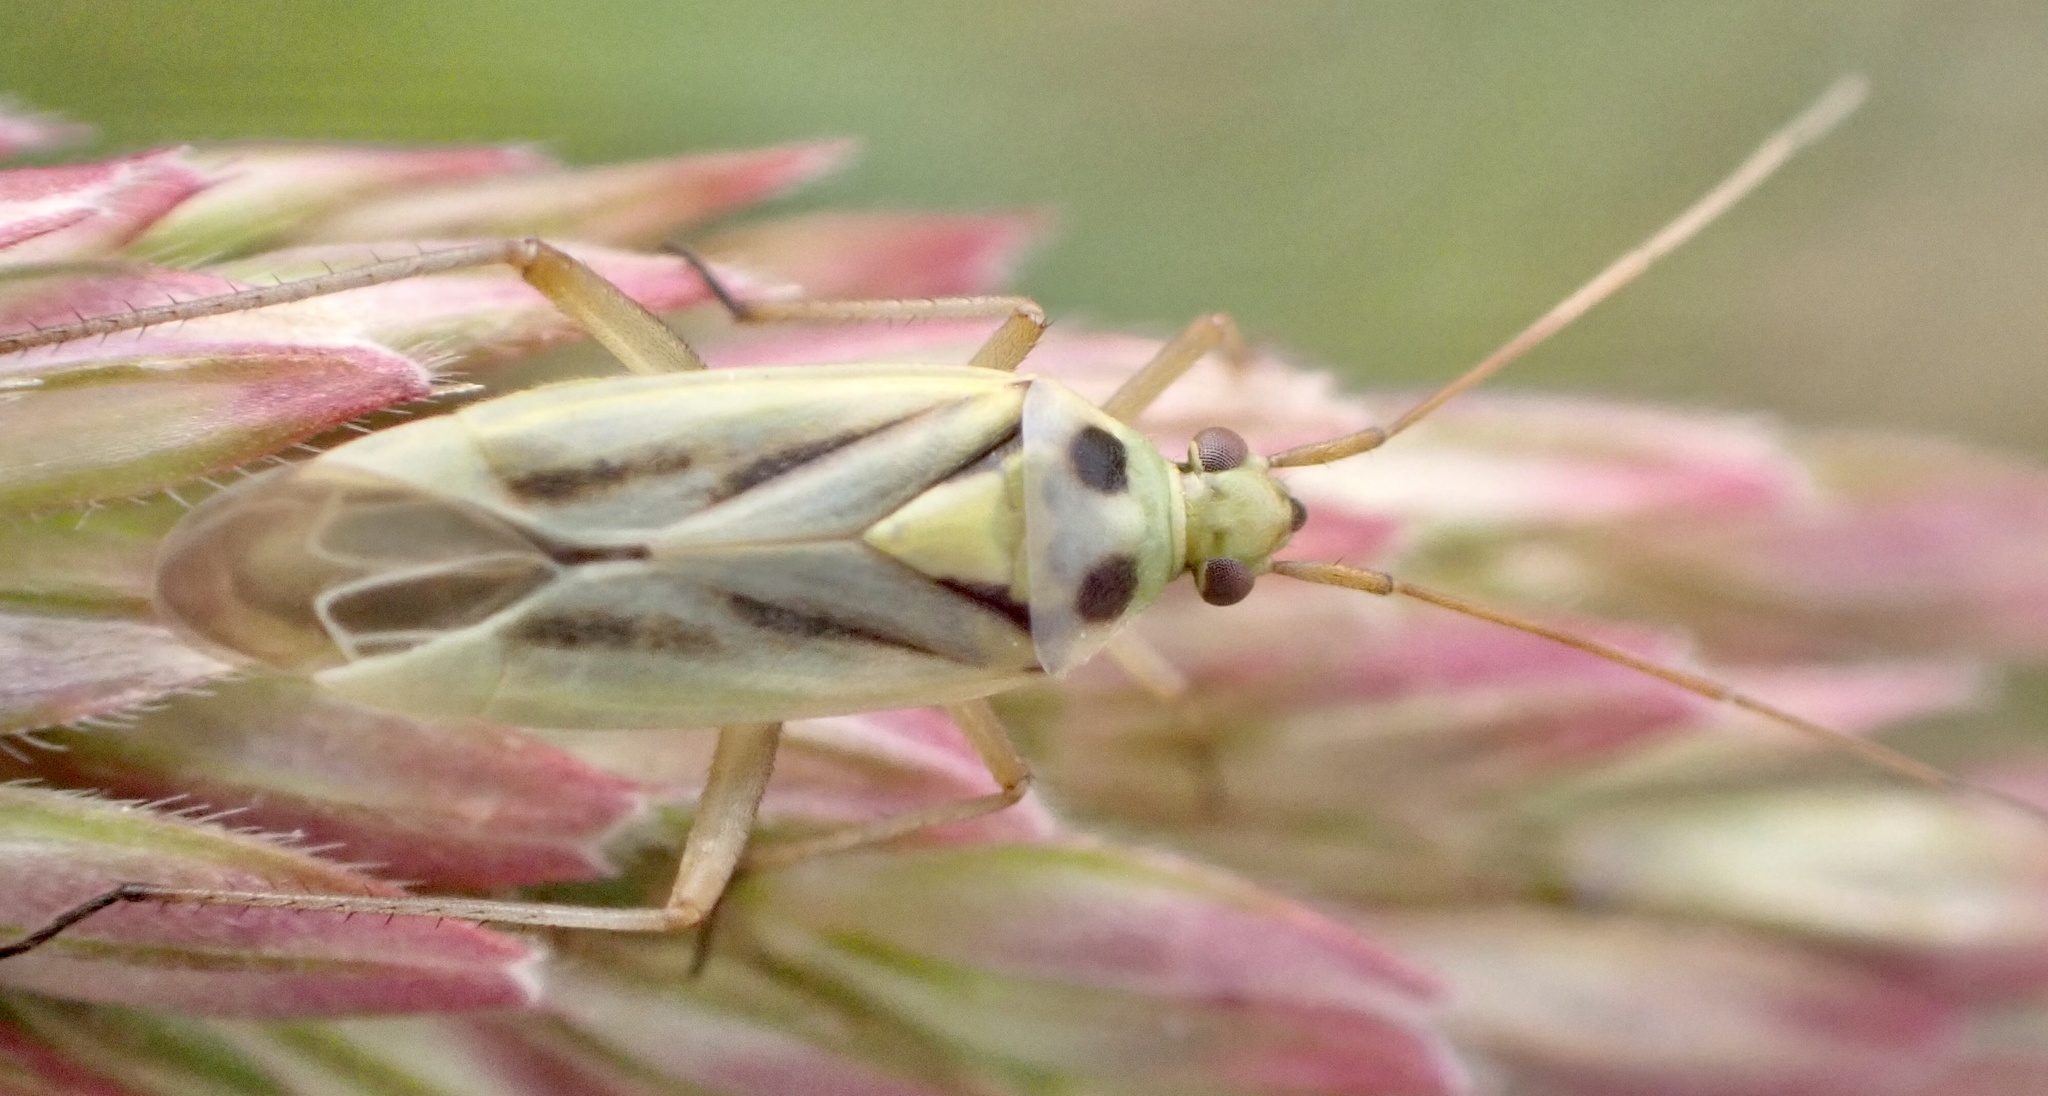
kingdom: Animalia
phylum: Arthropoda
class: Insecta
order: Hemiptera
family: Miridae
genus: Stenotus
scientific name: Stenotus binotatus
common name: Plant bug
